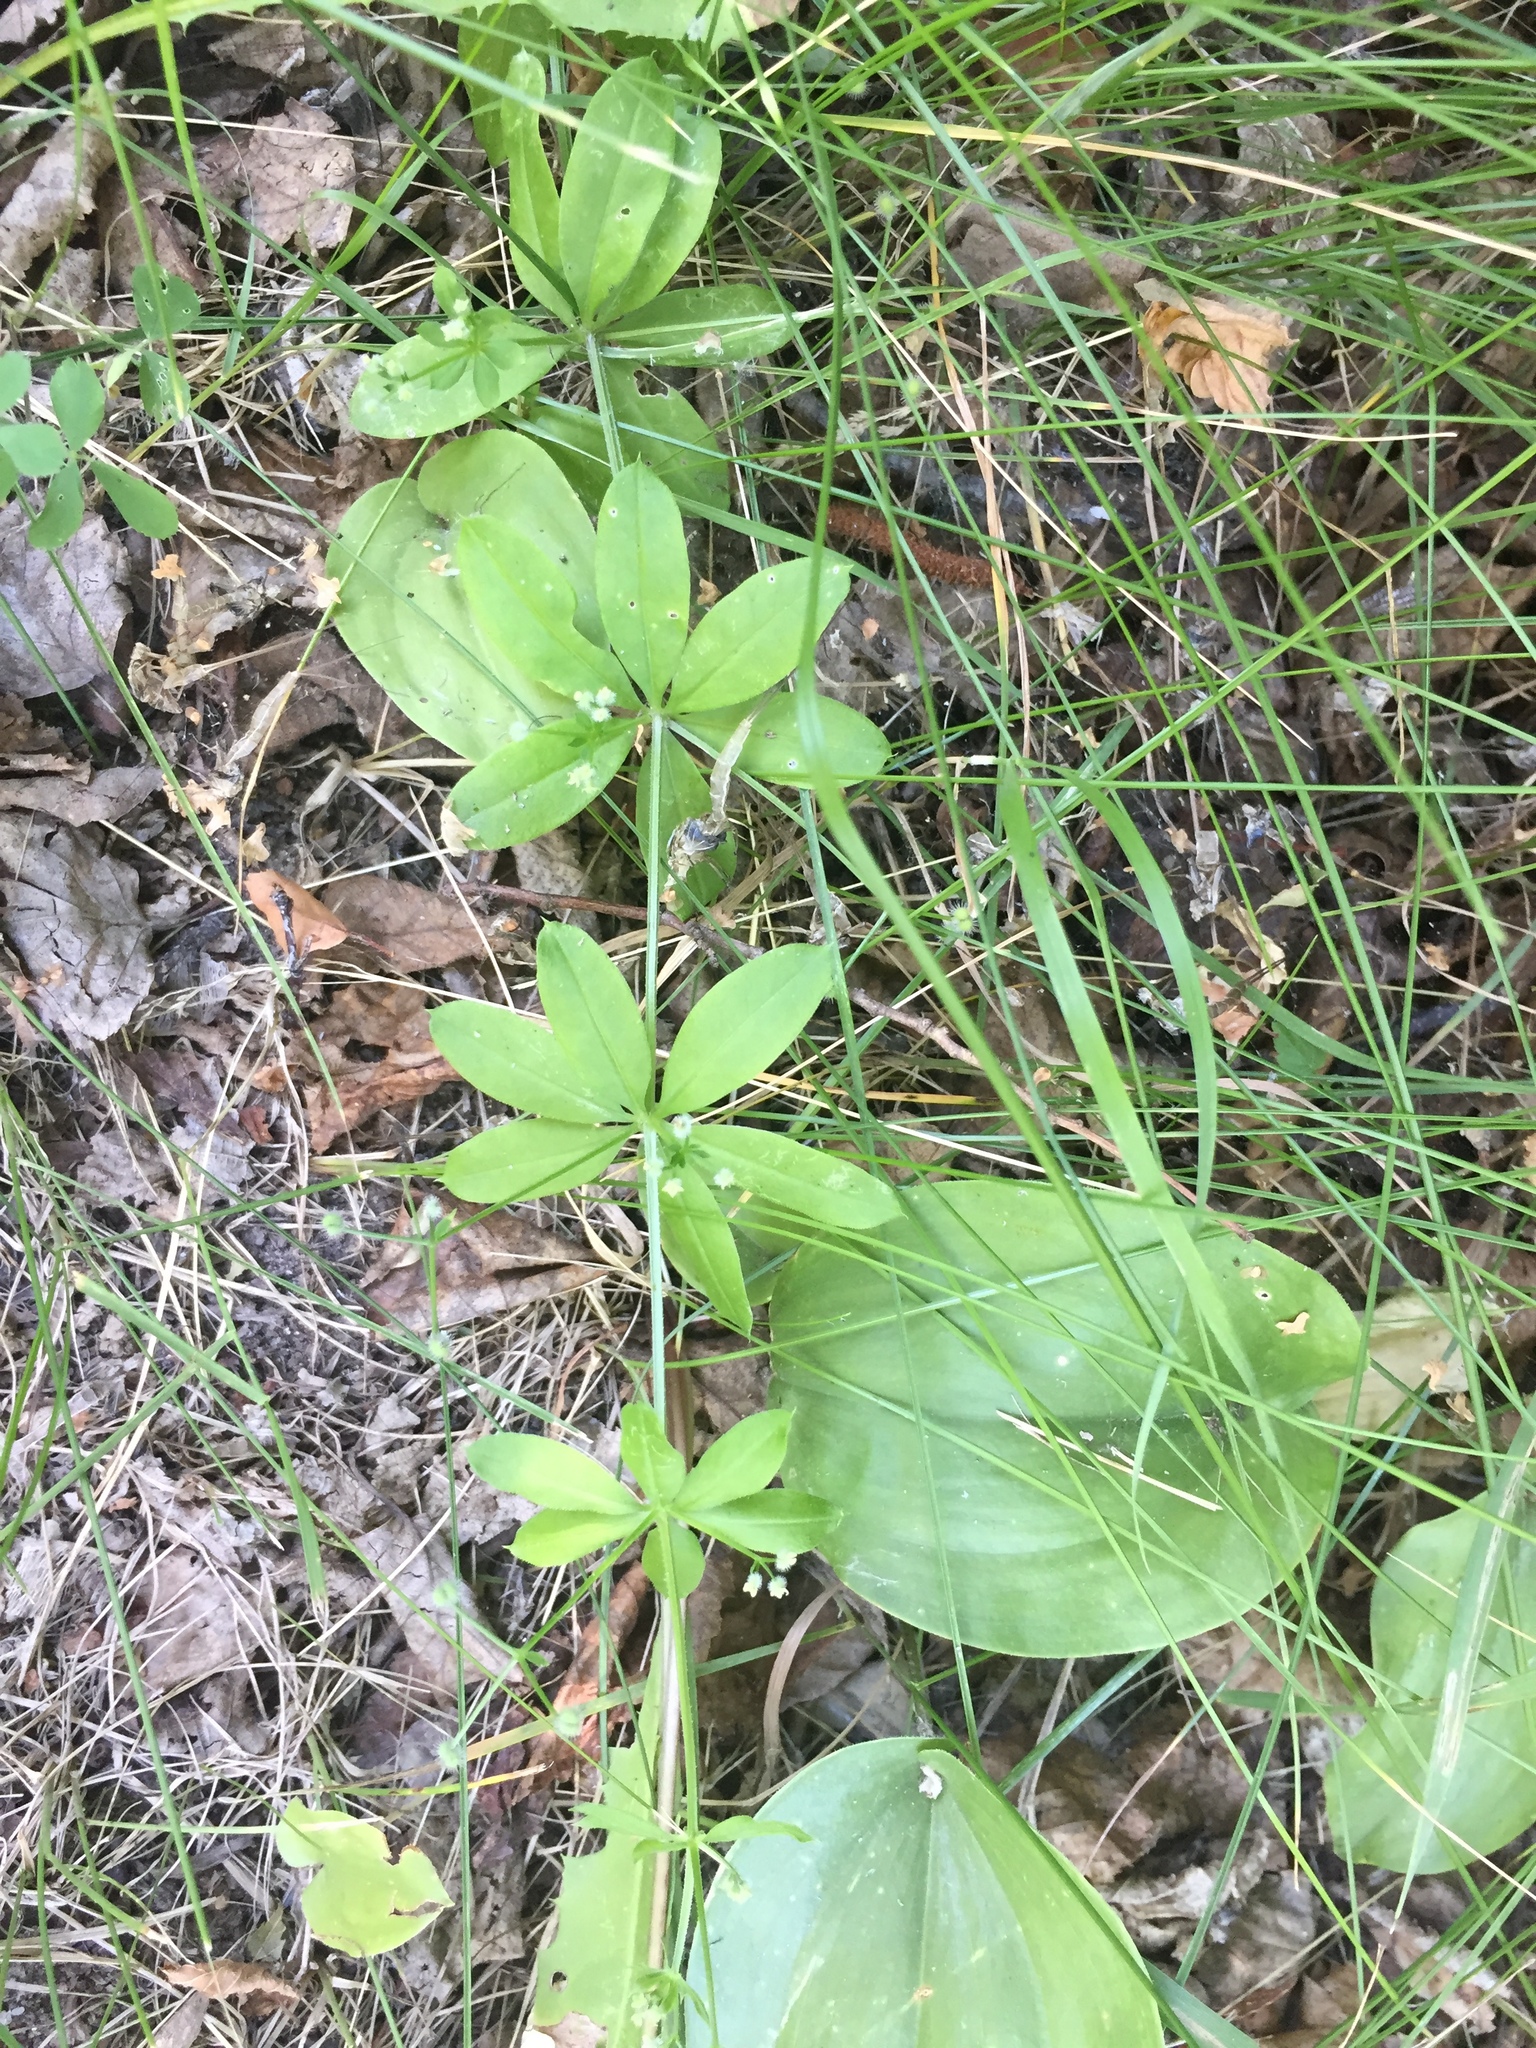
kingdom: Plantae
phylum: Tracheophyta
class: Magnoliopsida
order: Gentianales
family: Rubiaceae
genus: Galium
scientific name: Galium triflorum
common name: Fragrant bedstraw
